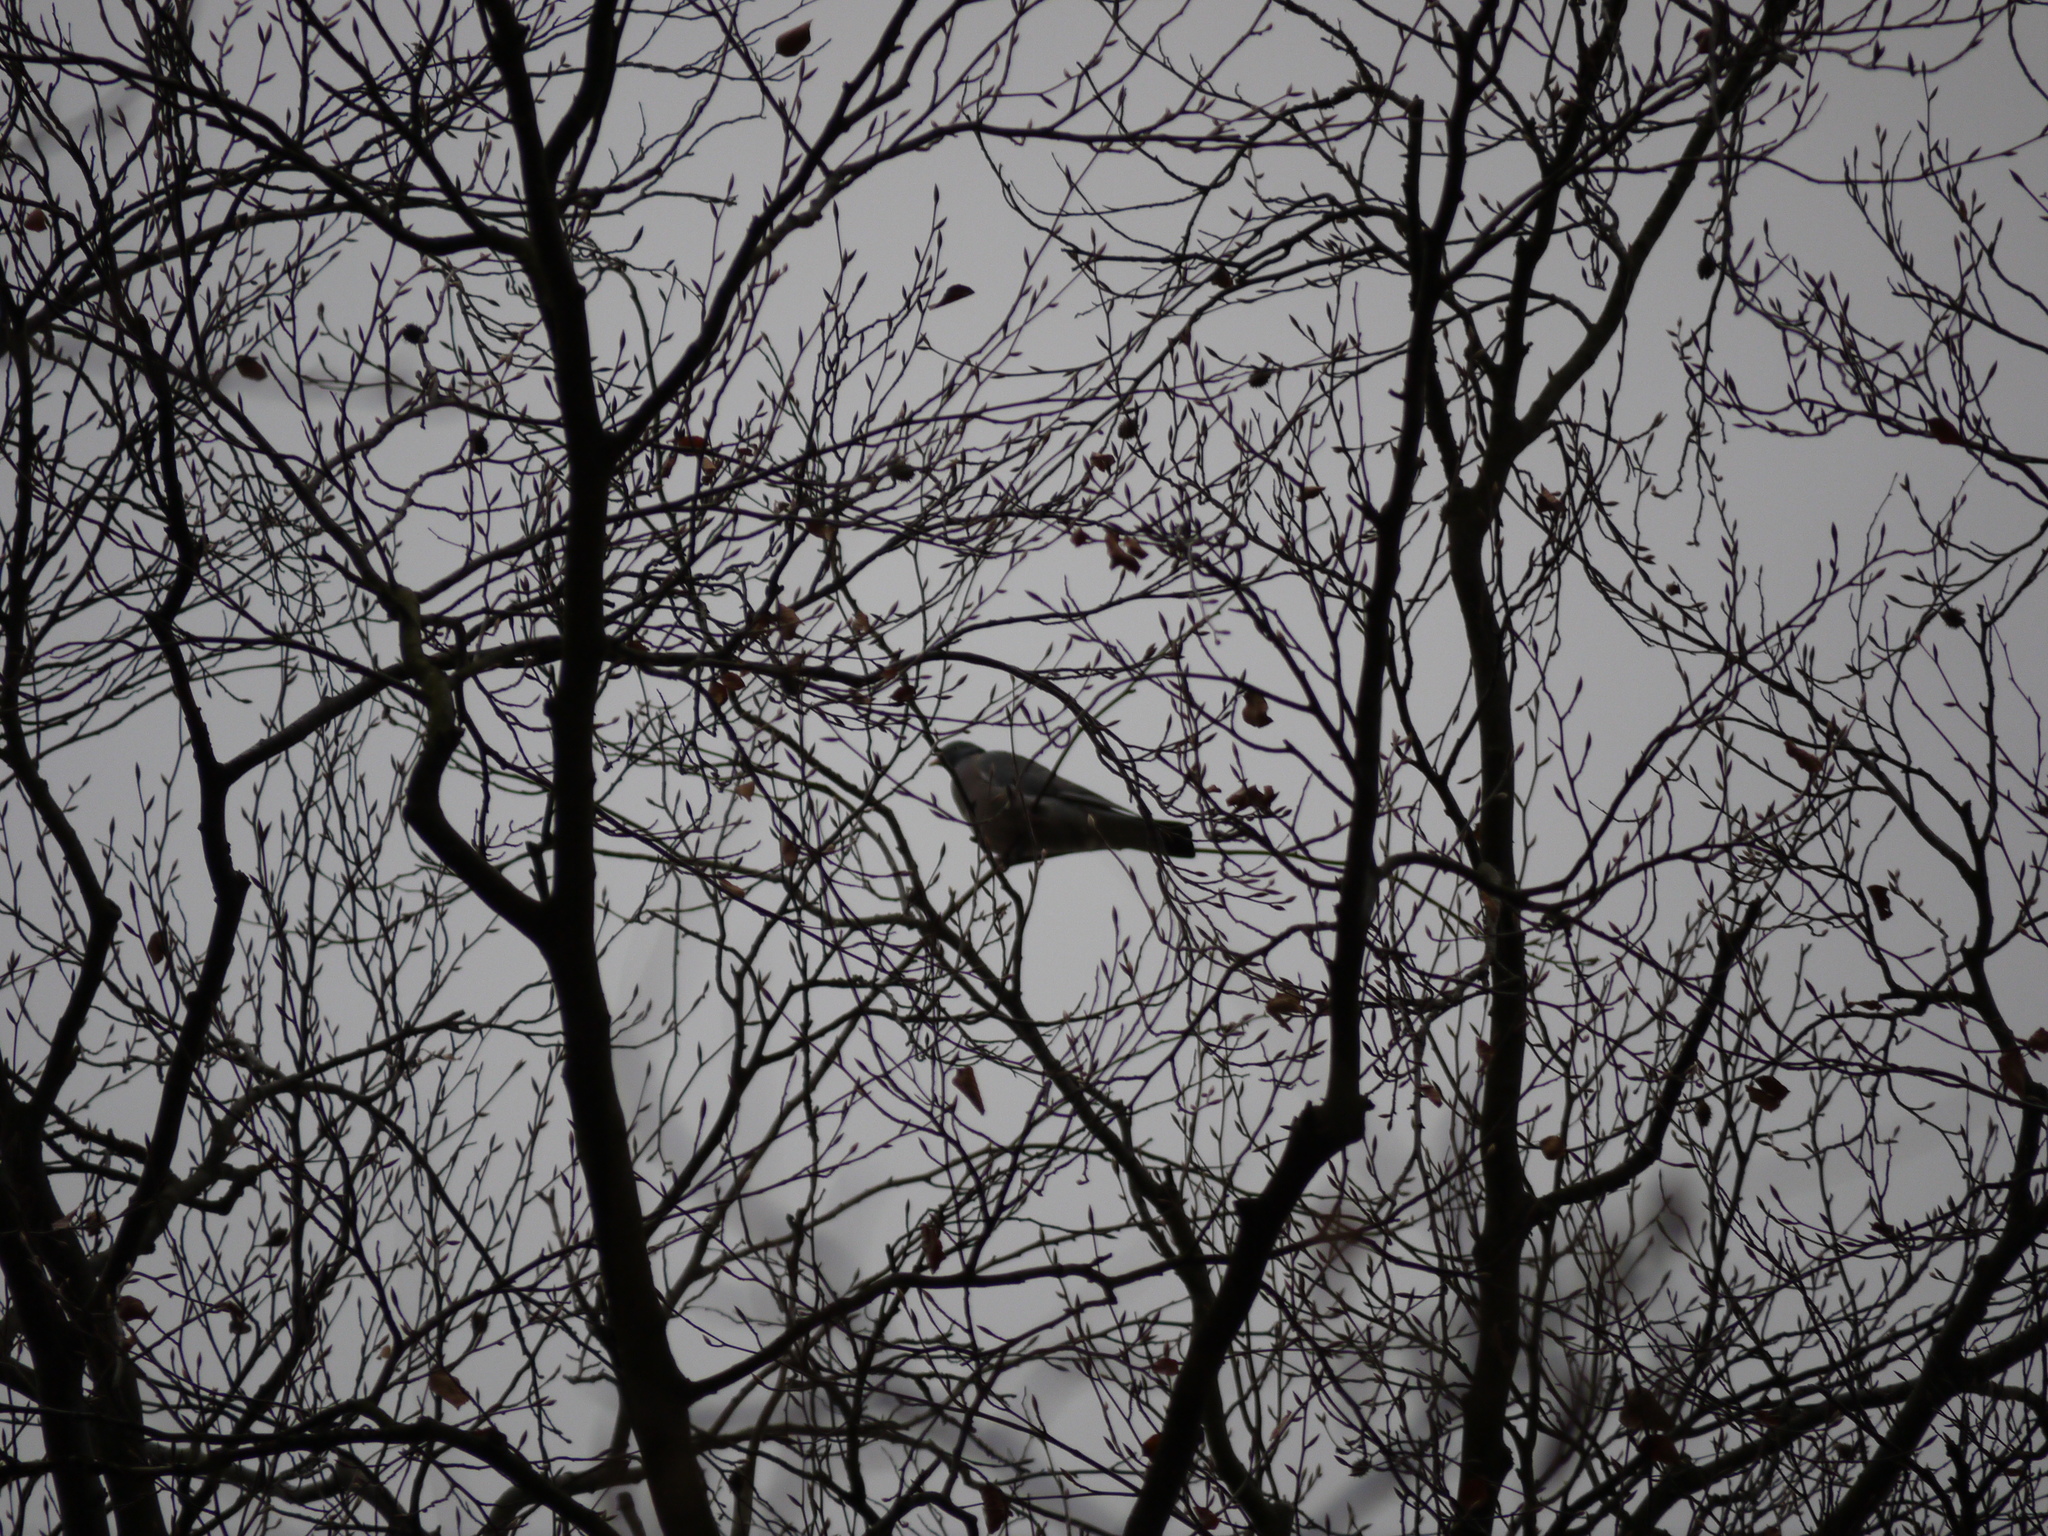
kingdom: Animalia
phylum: Chordata
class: Aves
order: Columbiformes
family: Columbidae
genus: Columba
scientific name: Columba palumbus
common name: Common wood pigeon
